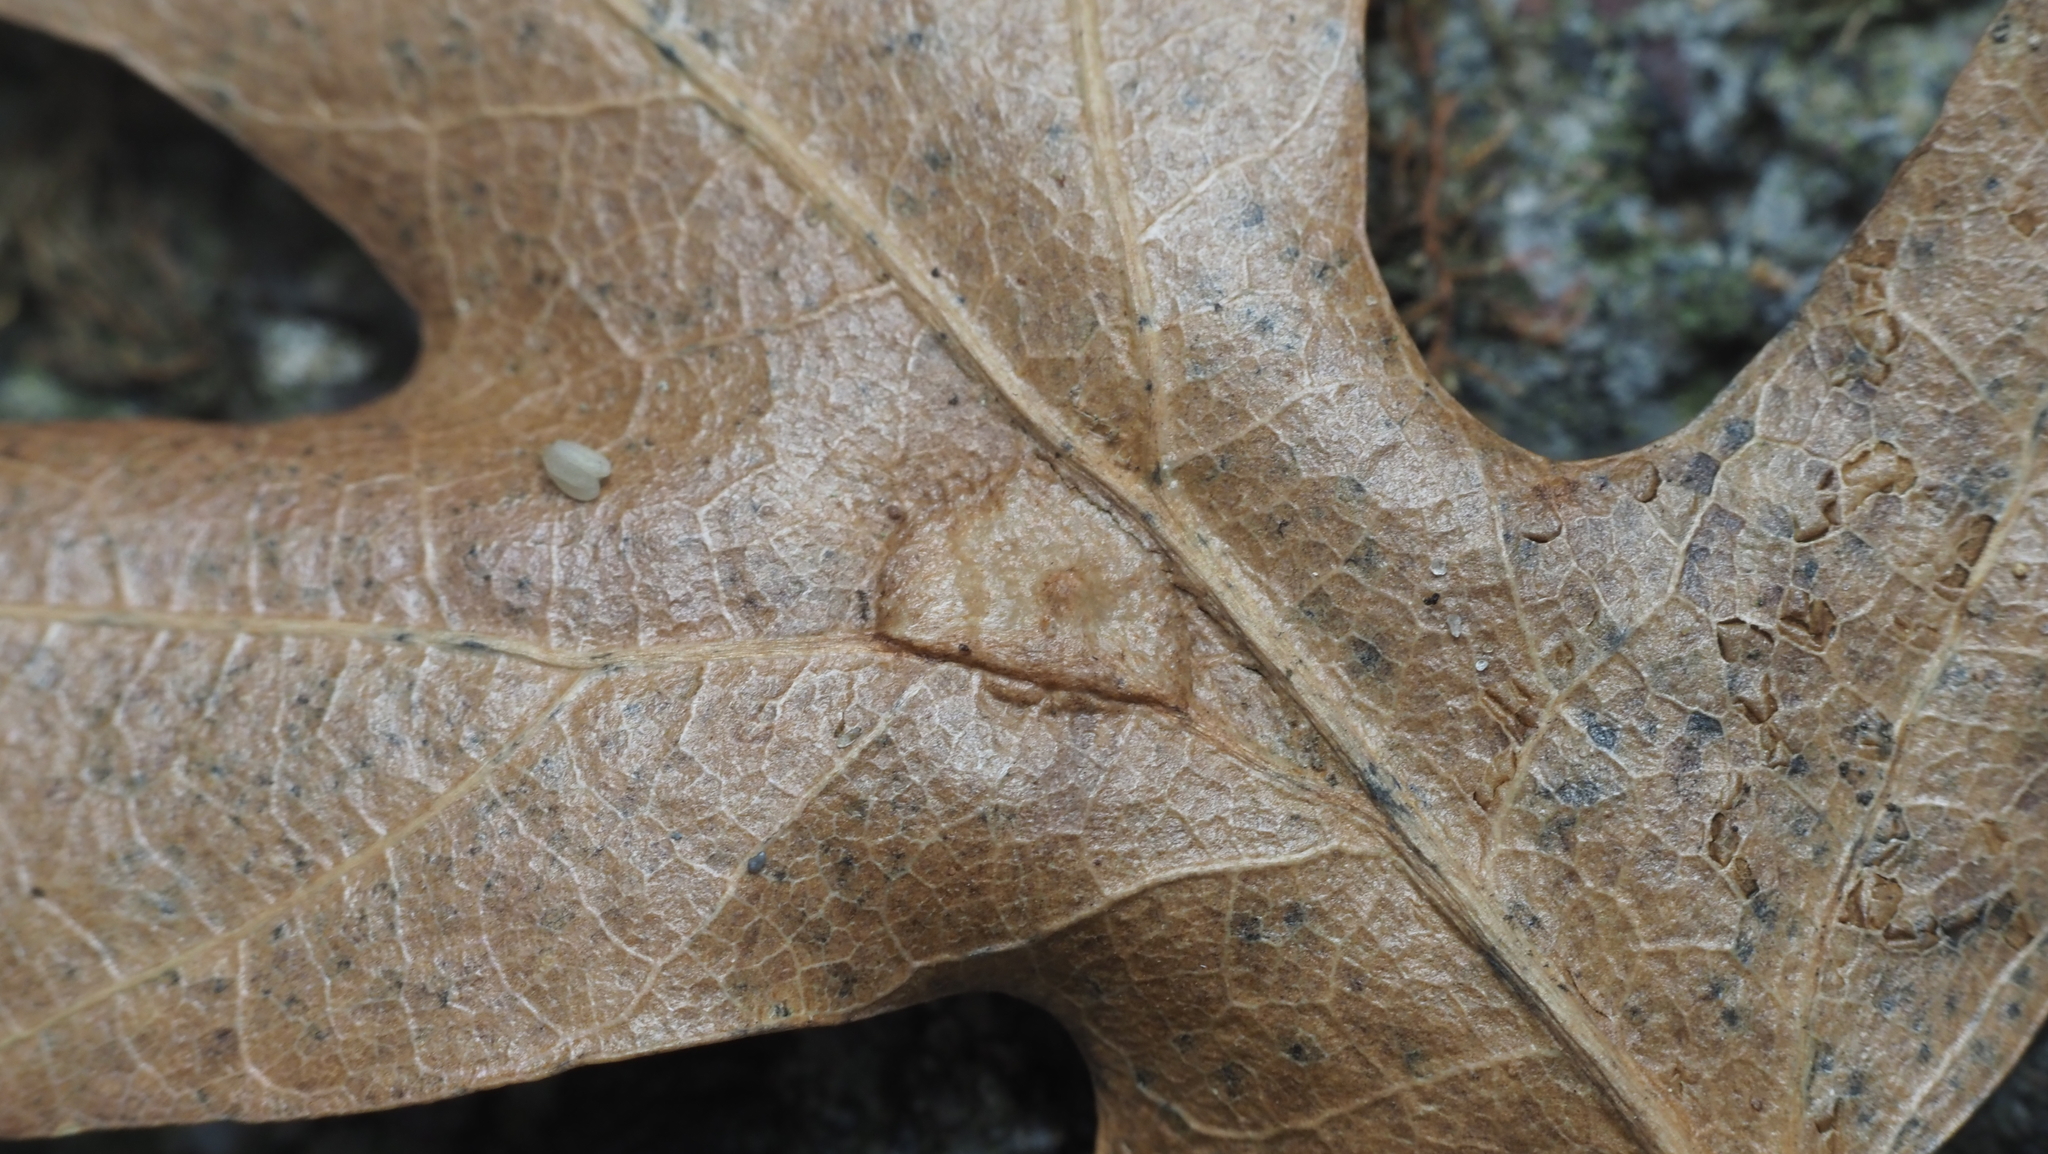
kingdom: Animalia
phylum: Arthropoda
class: Insecta
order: Diptera
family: Cecidomyiidae
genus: Polystepha
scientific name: Polystepha pilulae
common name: Oak leaf gall midge
